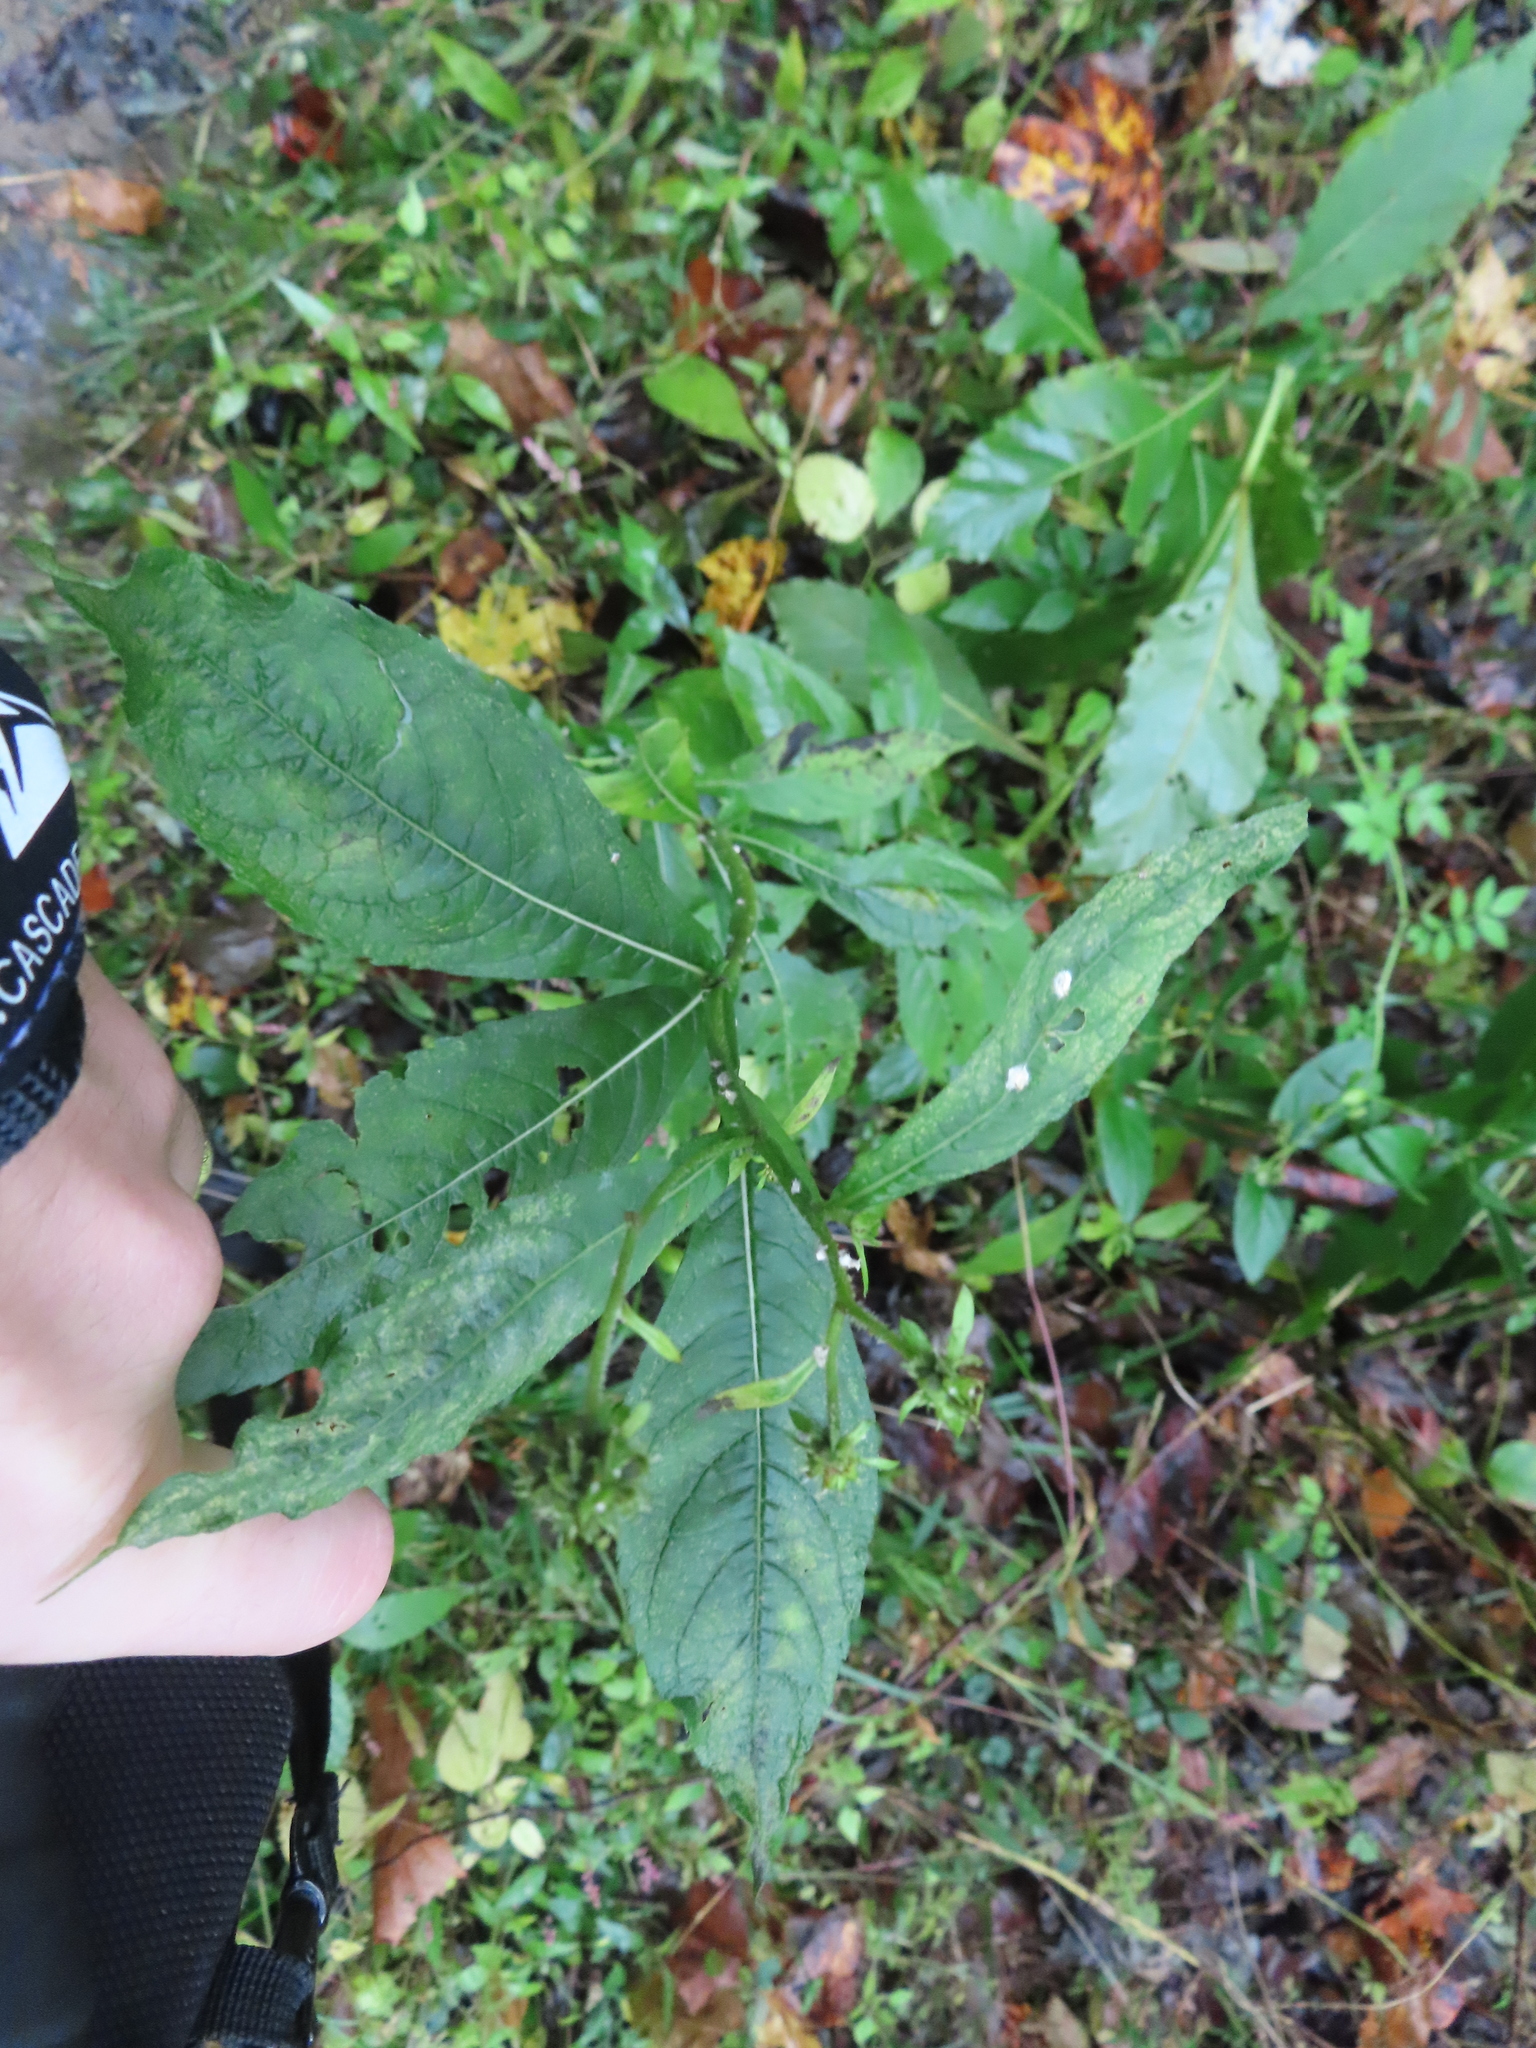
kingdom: Plantae
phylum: Tracheophyta
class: Magnoliopsida
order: Asterales
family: Asteraceae
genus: Verbesina
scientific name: Verbesina alternifolia
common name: Wingstem
